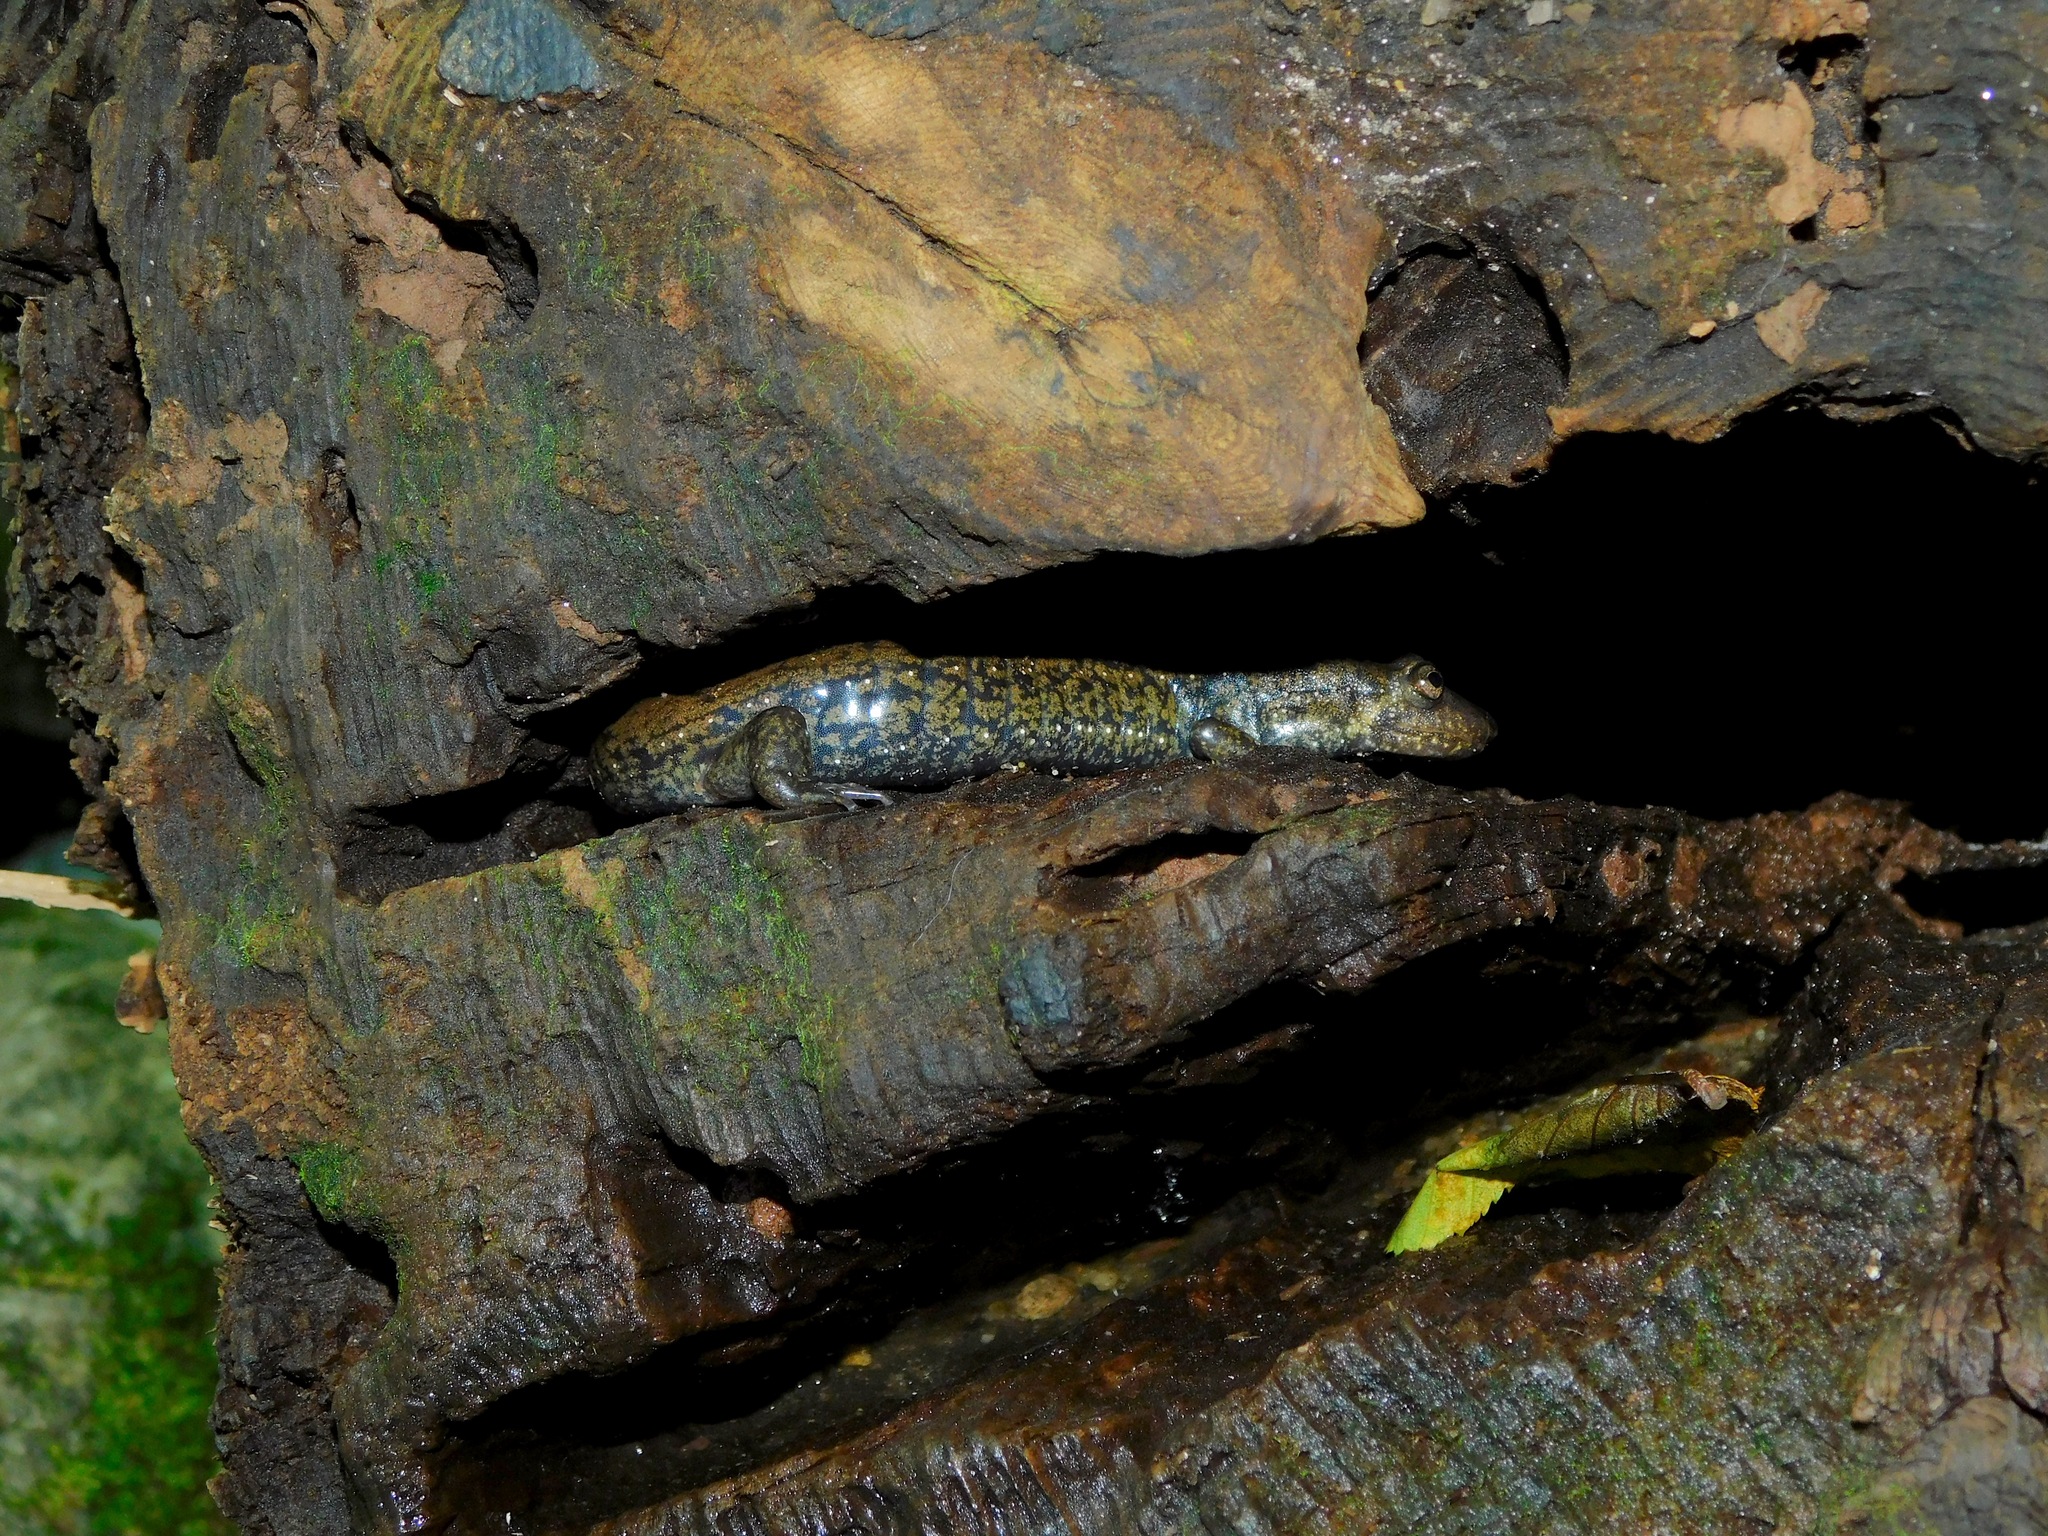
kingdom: Animalia
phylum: Chordata
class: Amphibia
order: Caudata
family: Plethodontidae
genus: Desmognathus
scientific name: Desmognathus
